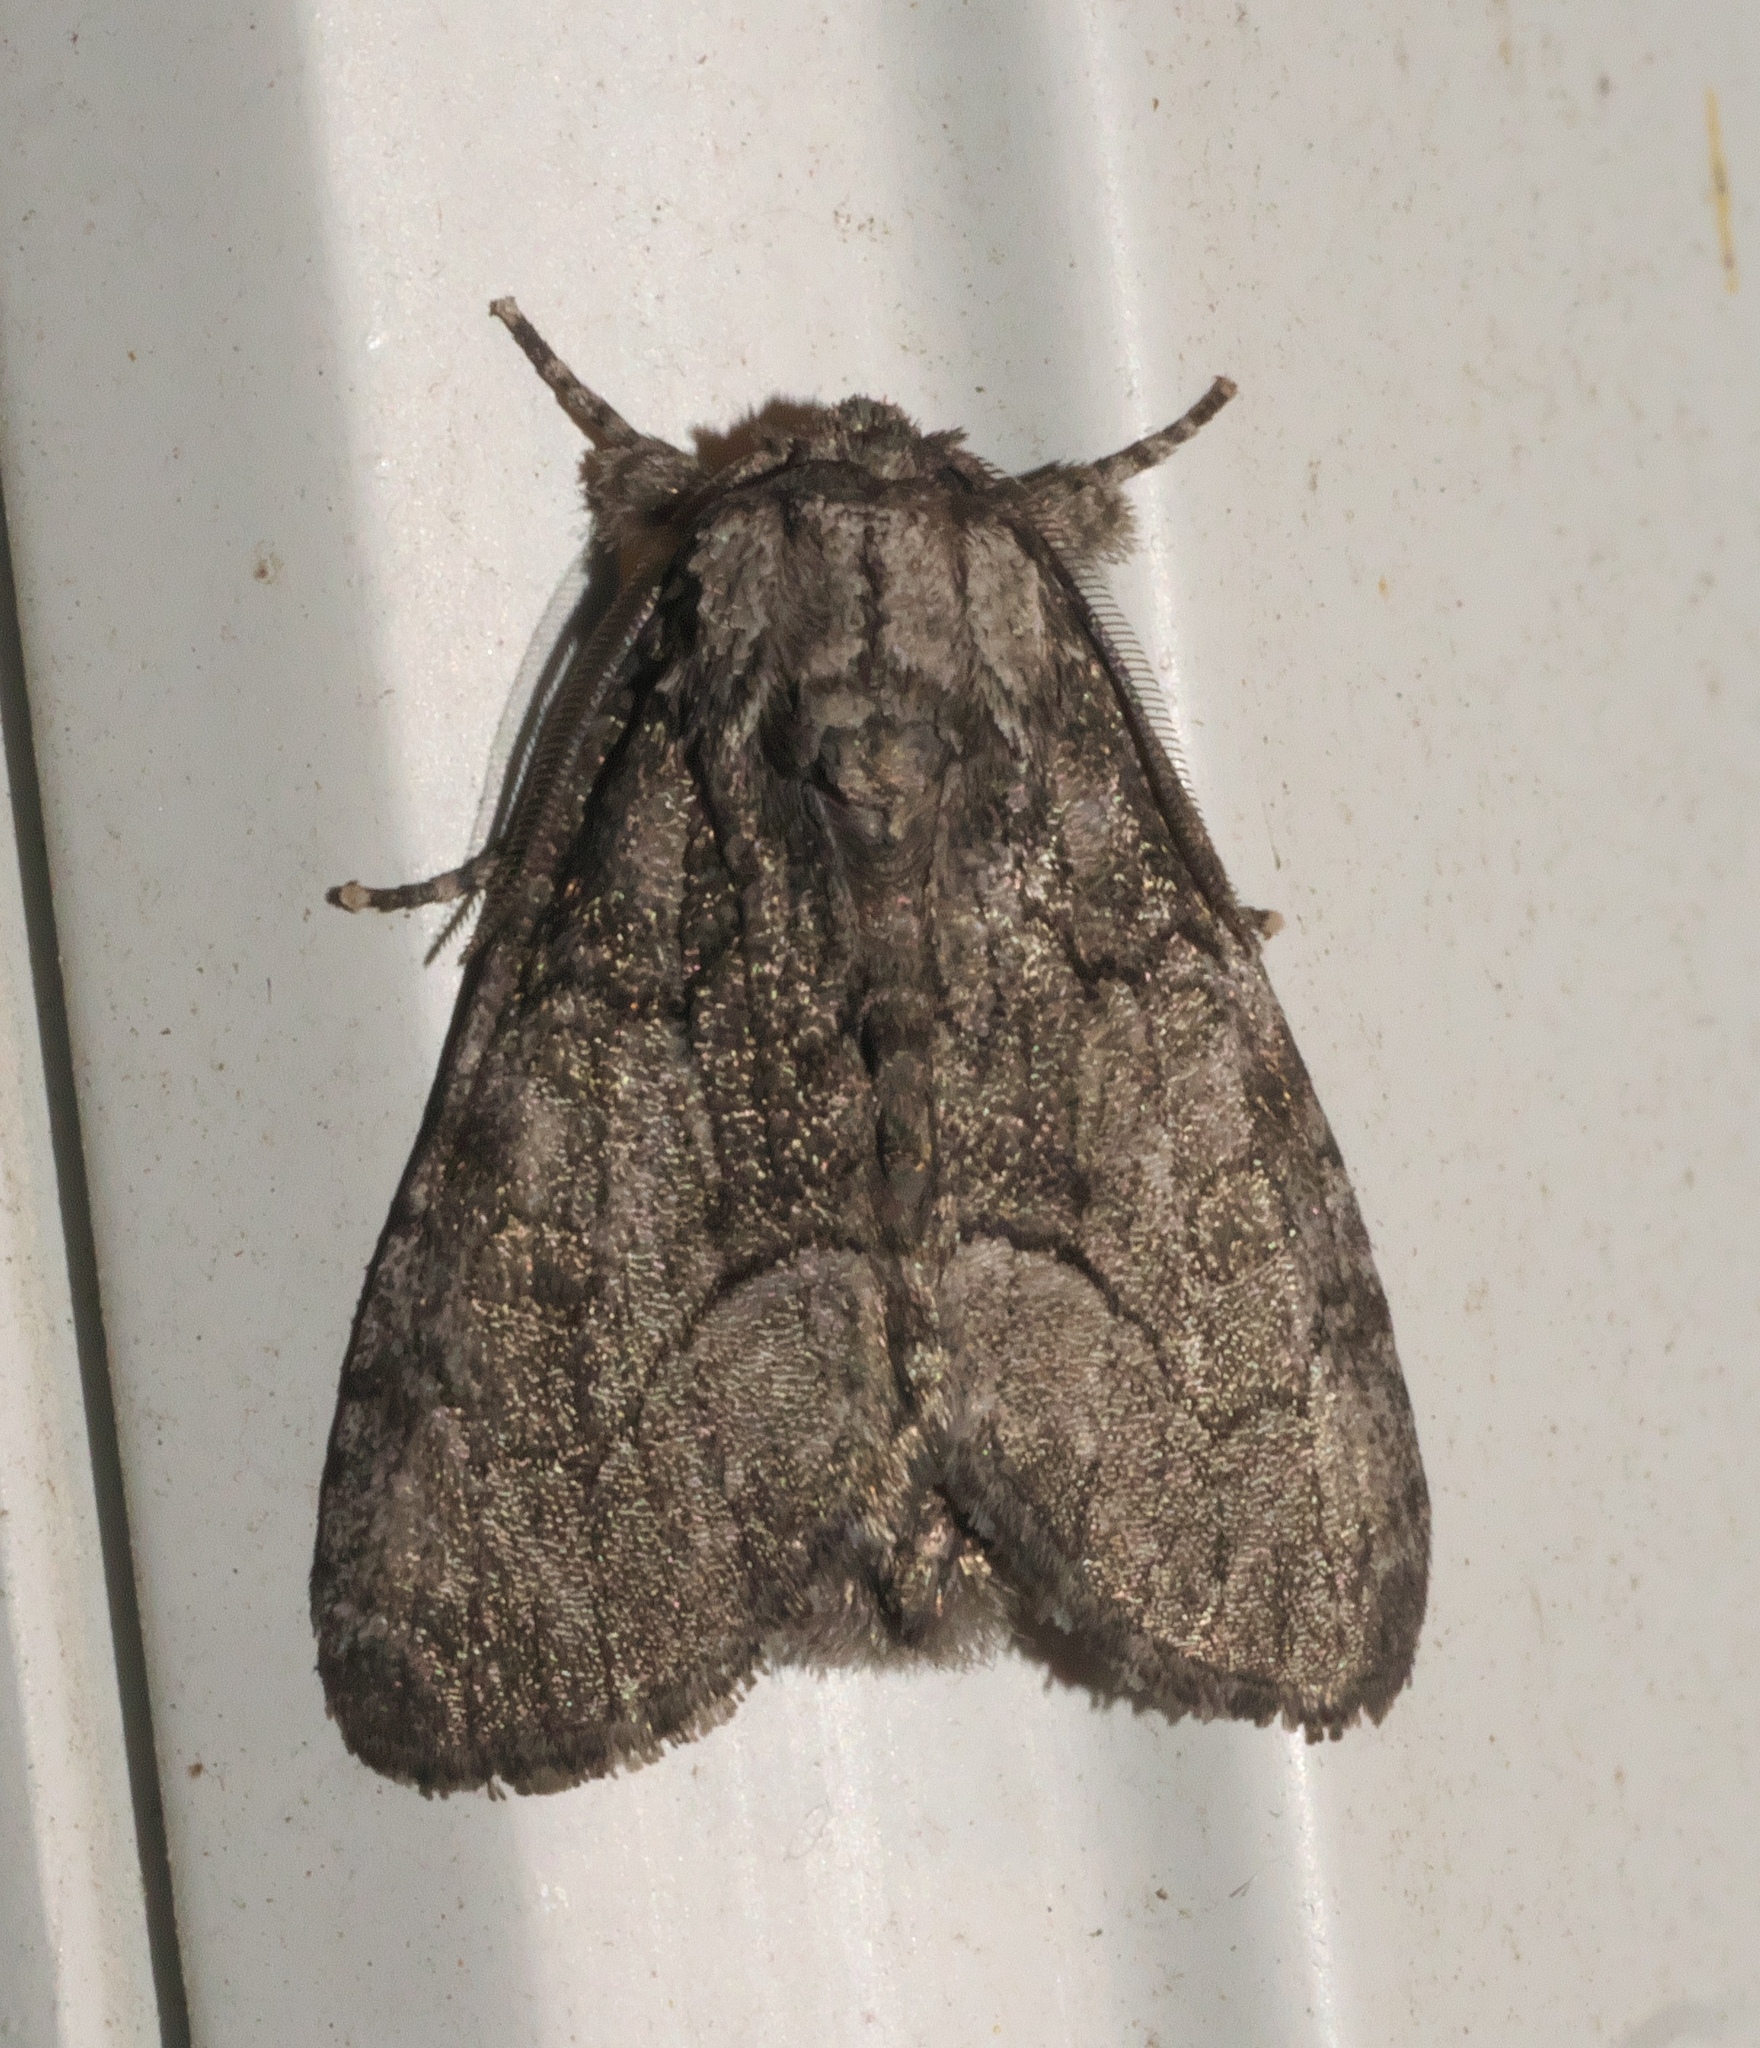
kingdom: Animalia
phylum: Arthropoda
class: Insecta
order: Lepidoptera
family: Noctuidae
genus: Raphia
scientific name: Raphia frater
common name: Brother
